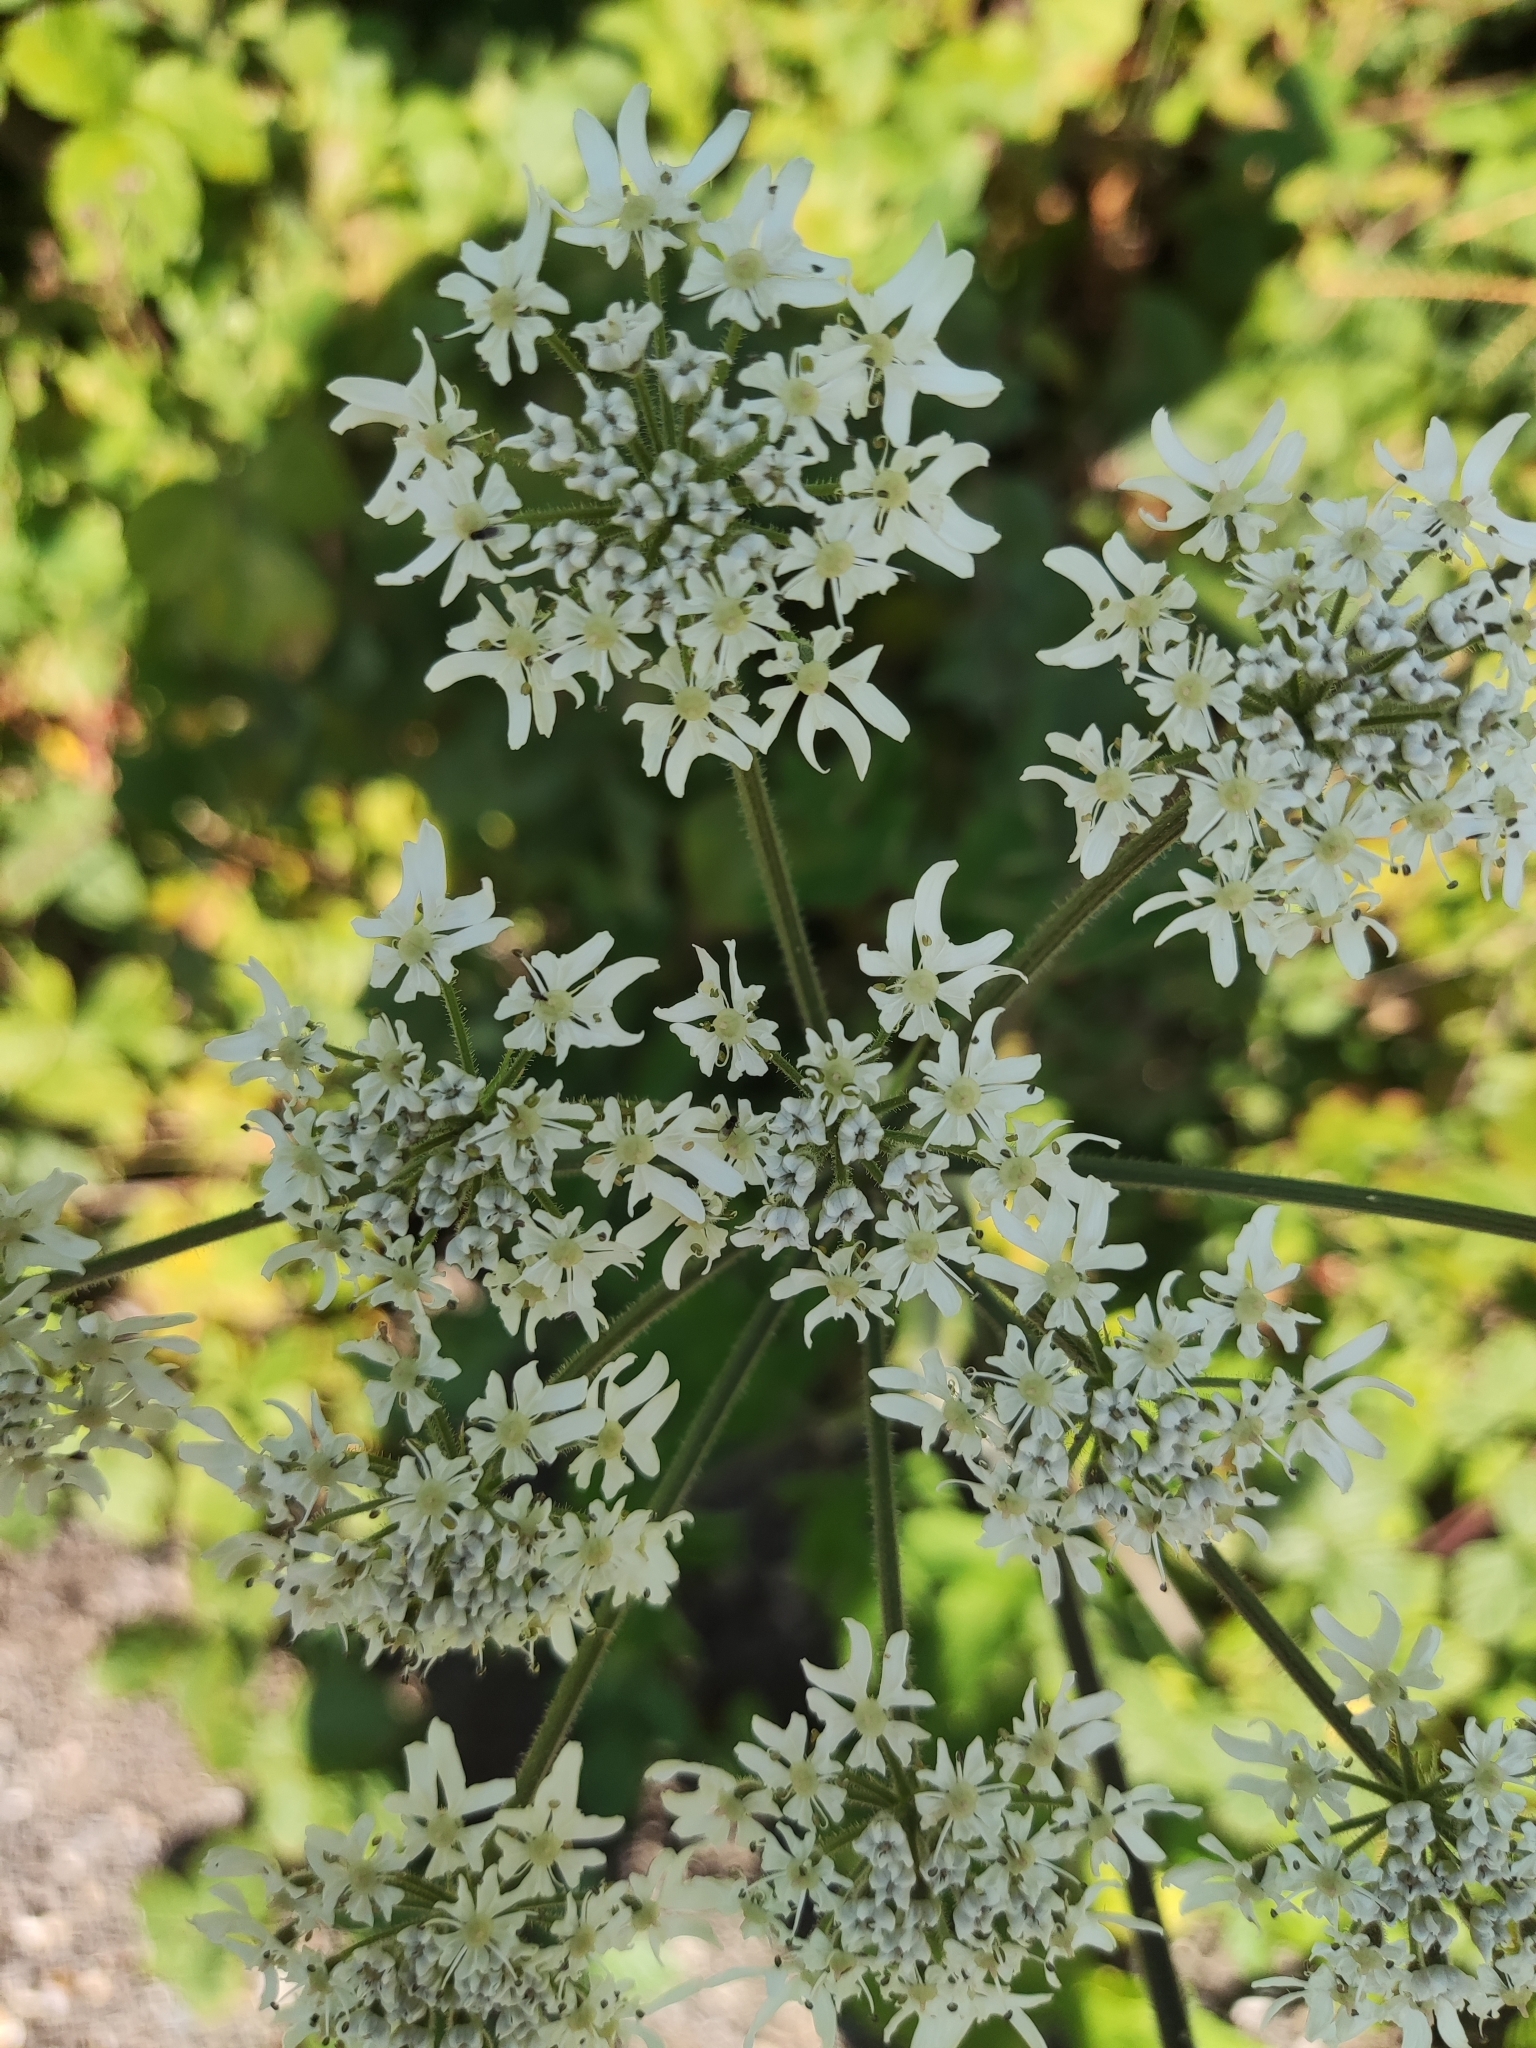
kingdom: Plantae
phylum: Tracheophyta
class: Magnoliopsida
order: Apiales
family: Apiaceae
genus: Heracleum
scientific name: Heracleum sphondylium
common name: Hogweed
